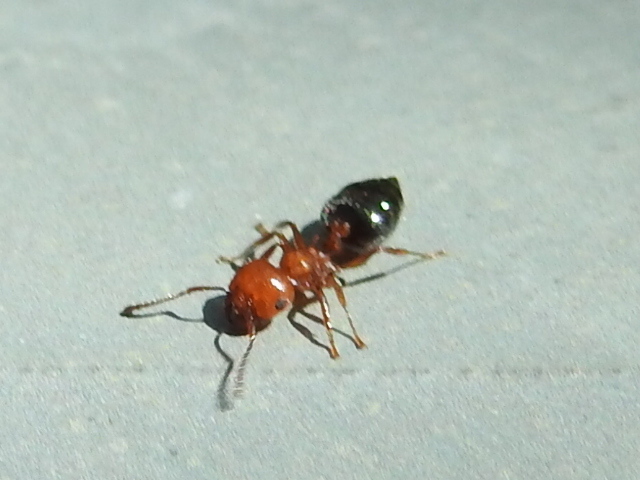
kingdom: Animalia
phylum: Arthropoda
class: Insecta
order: Hymenoptera
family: Formicidae
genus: Crematogaster
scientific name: Crematogaster laeviuscula
